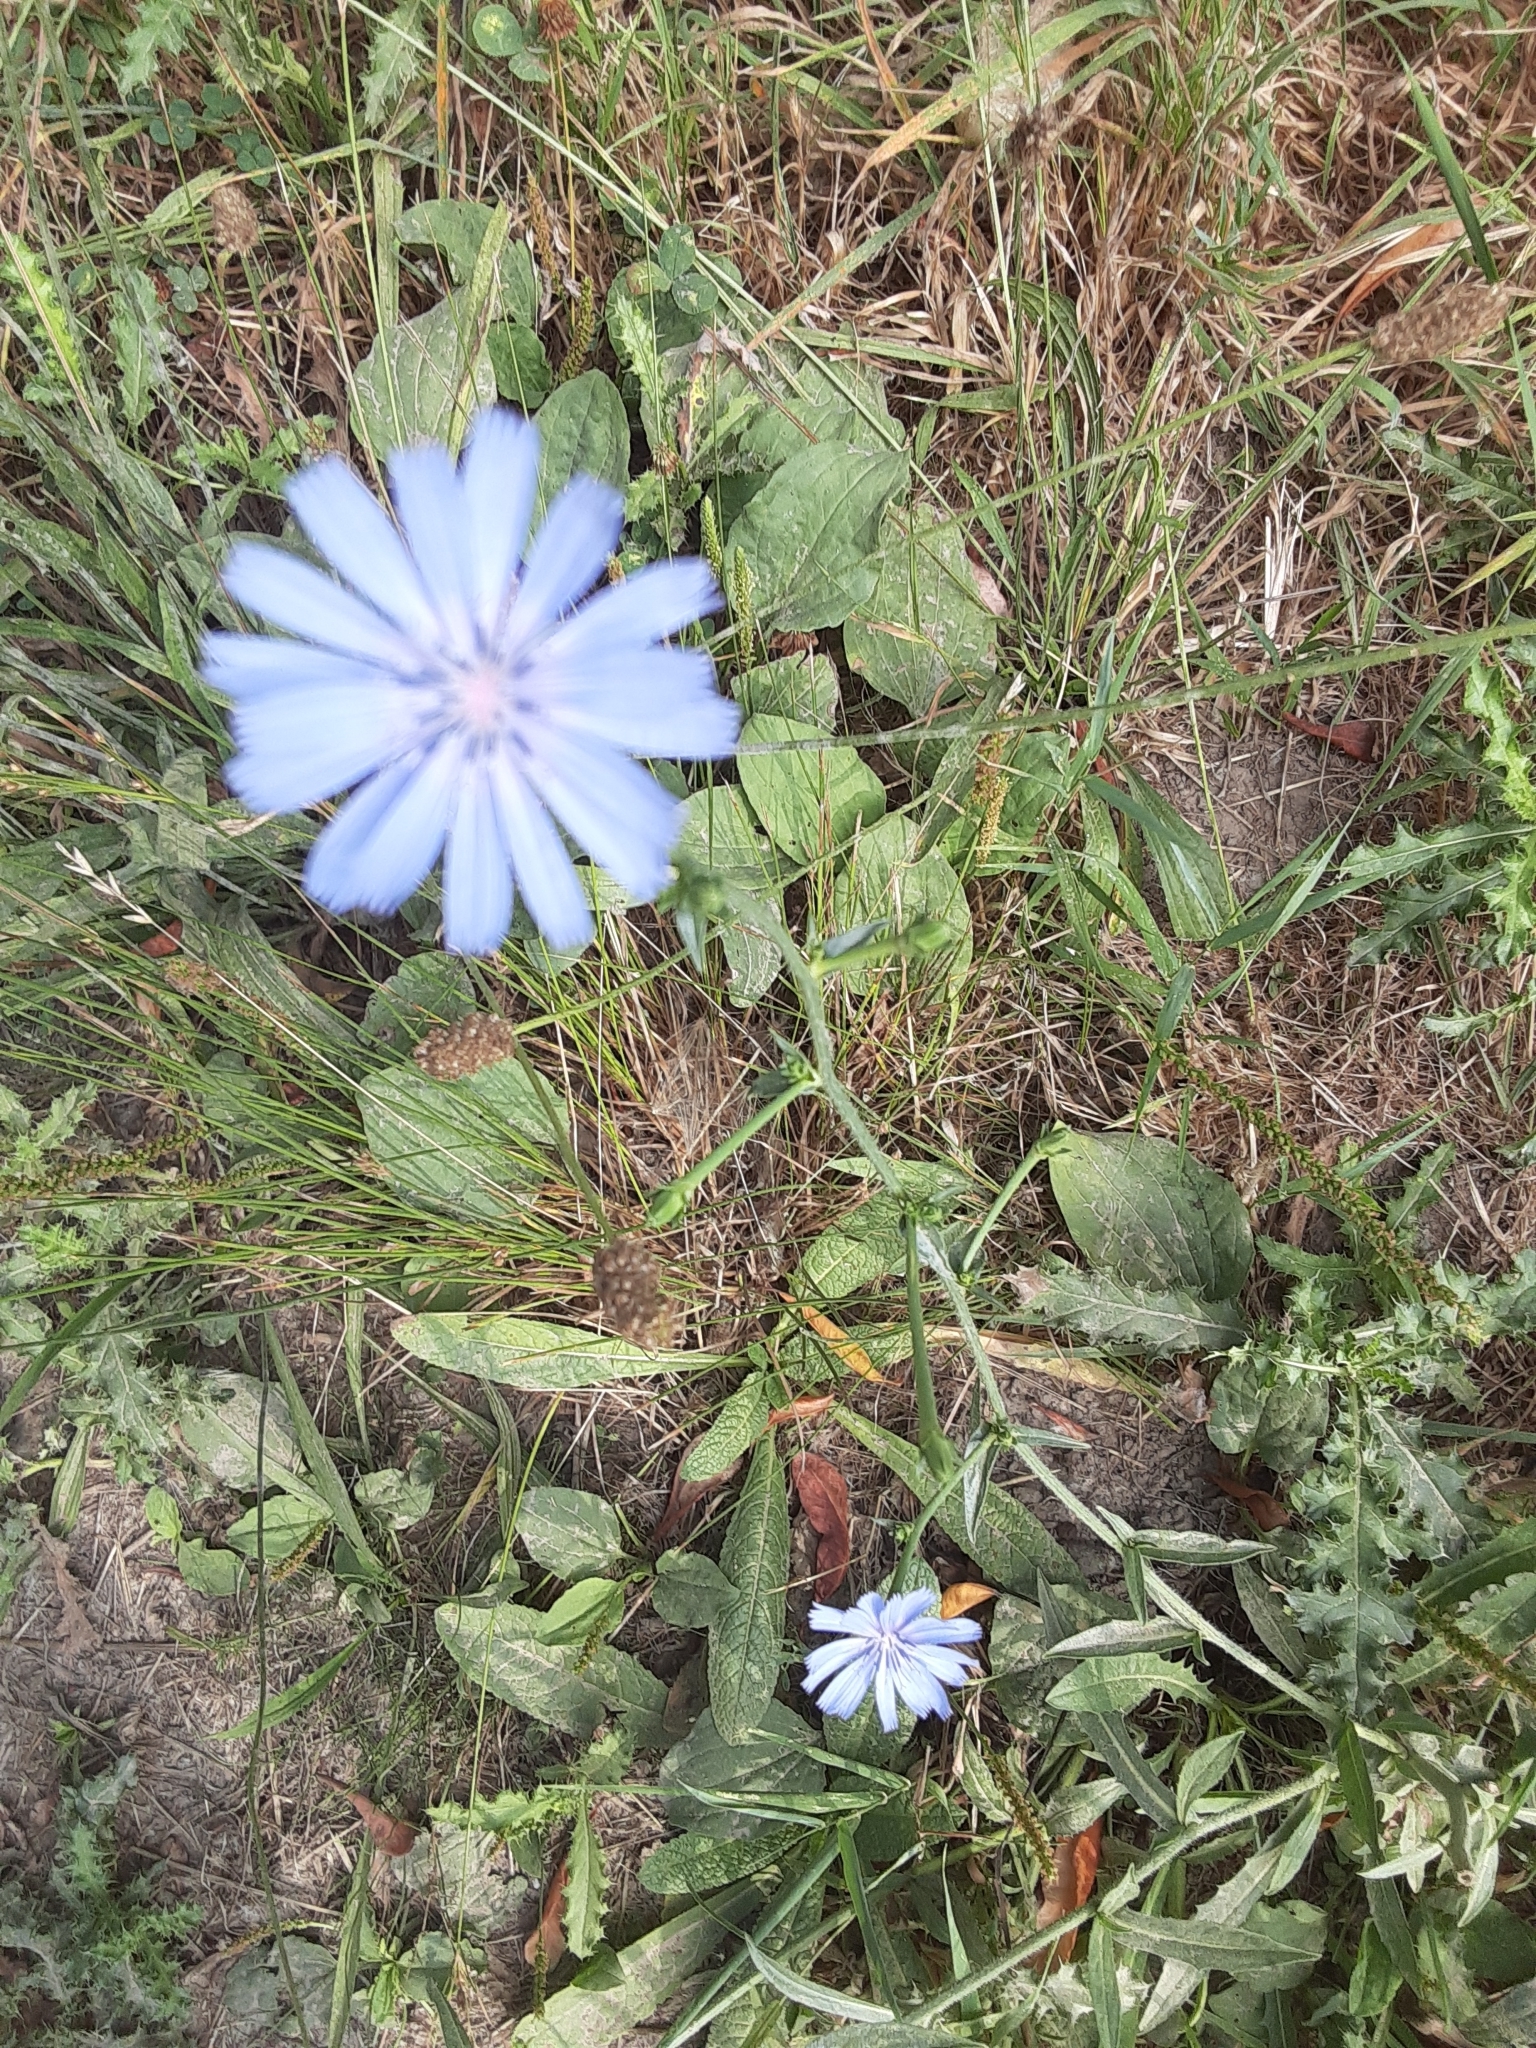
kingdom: Plantae
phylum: Tracheophyta
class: Magnoliopsida
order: Asterales
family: Asteraceae
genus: Cichorium
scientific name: Cichorium intybus
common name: Chicory
